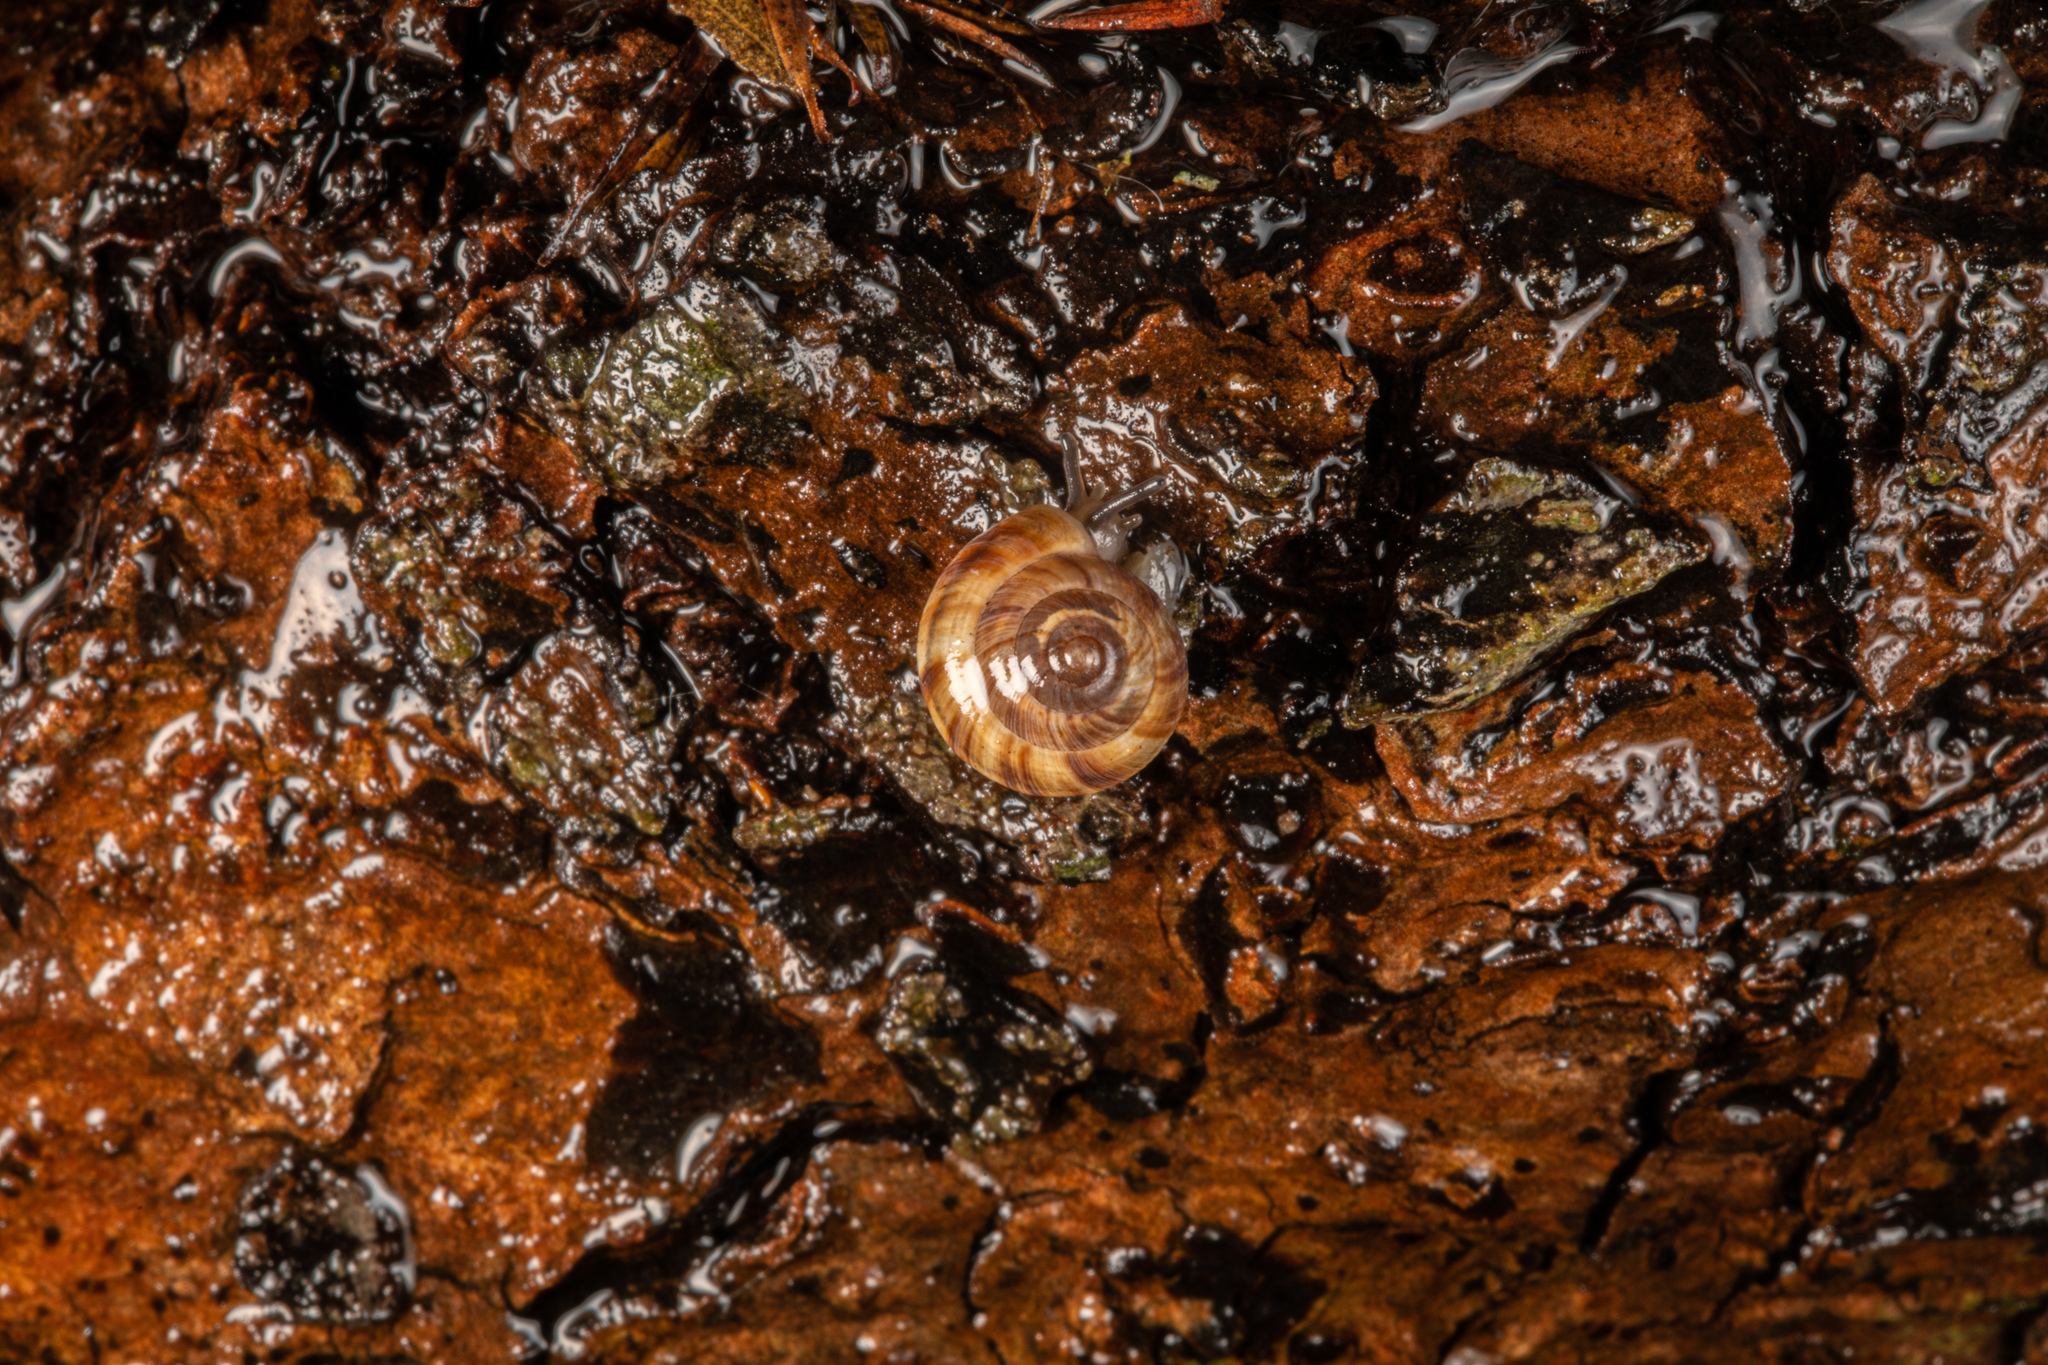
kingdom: Animalia
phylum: Mollusca
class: Gastropoda
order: Stylommatophora
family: Charopidae
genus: Serpho
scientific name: Serpho
